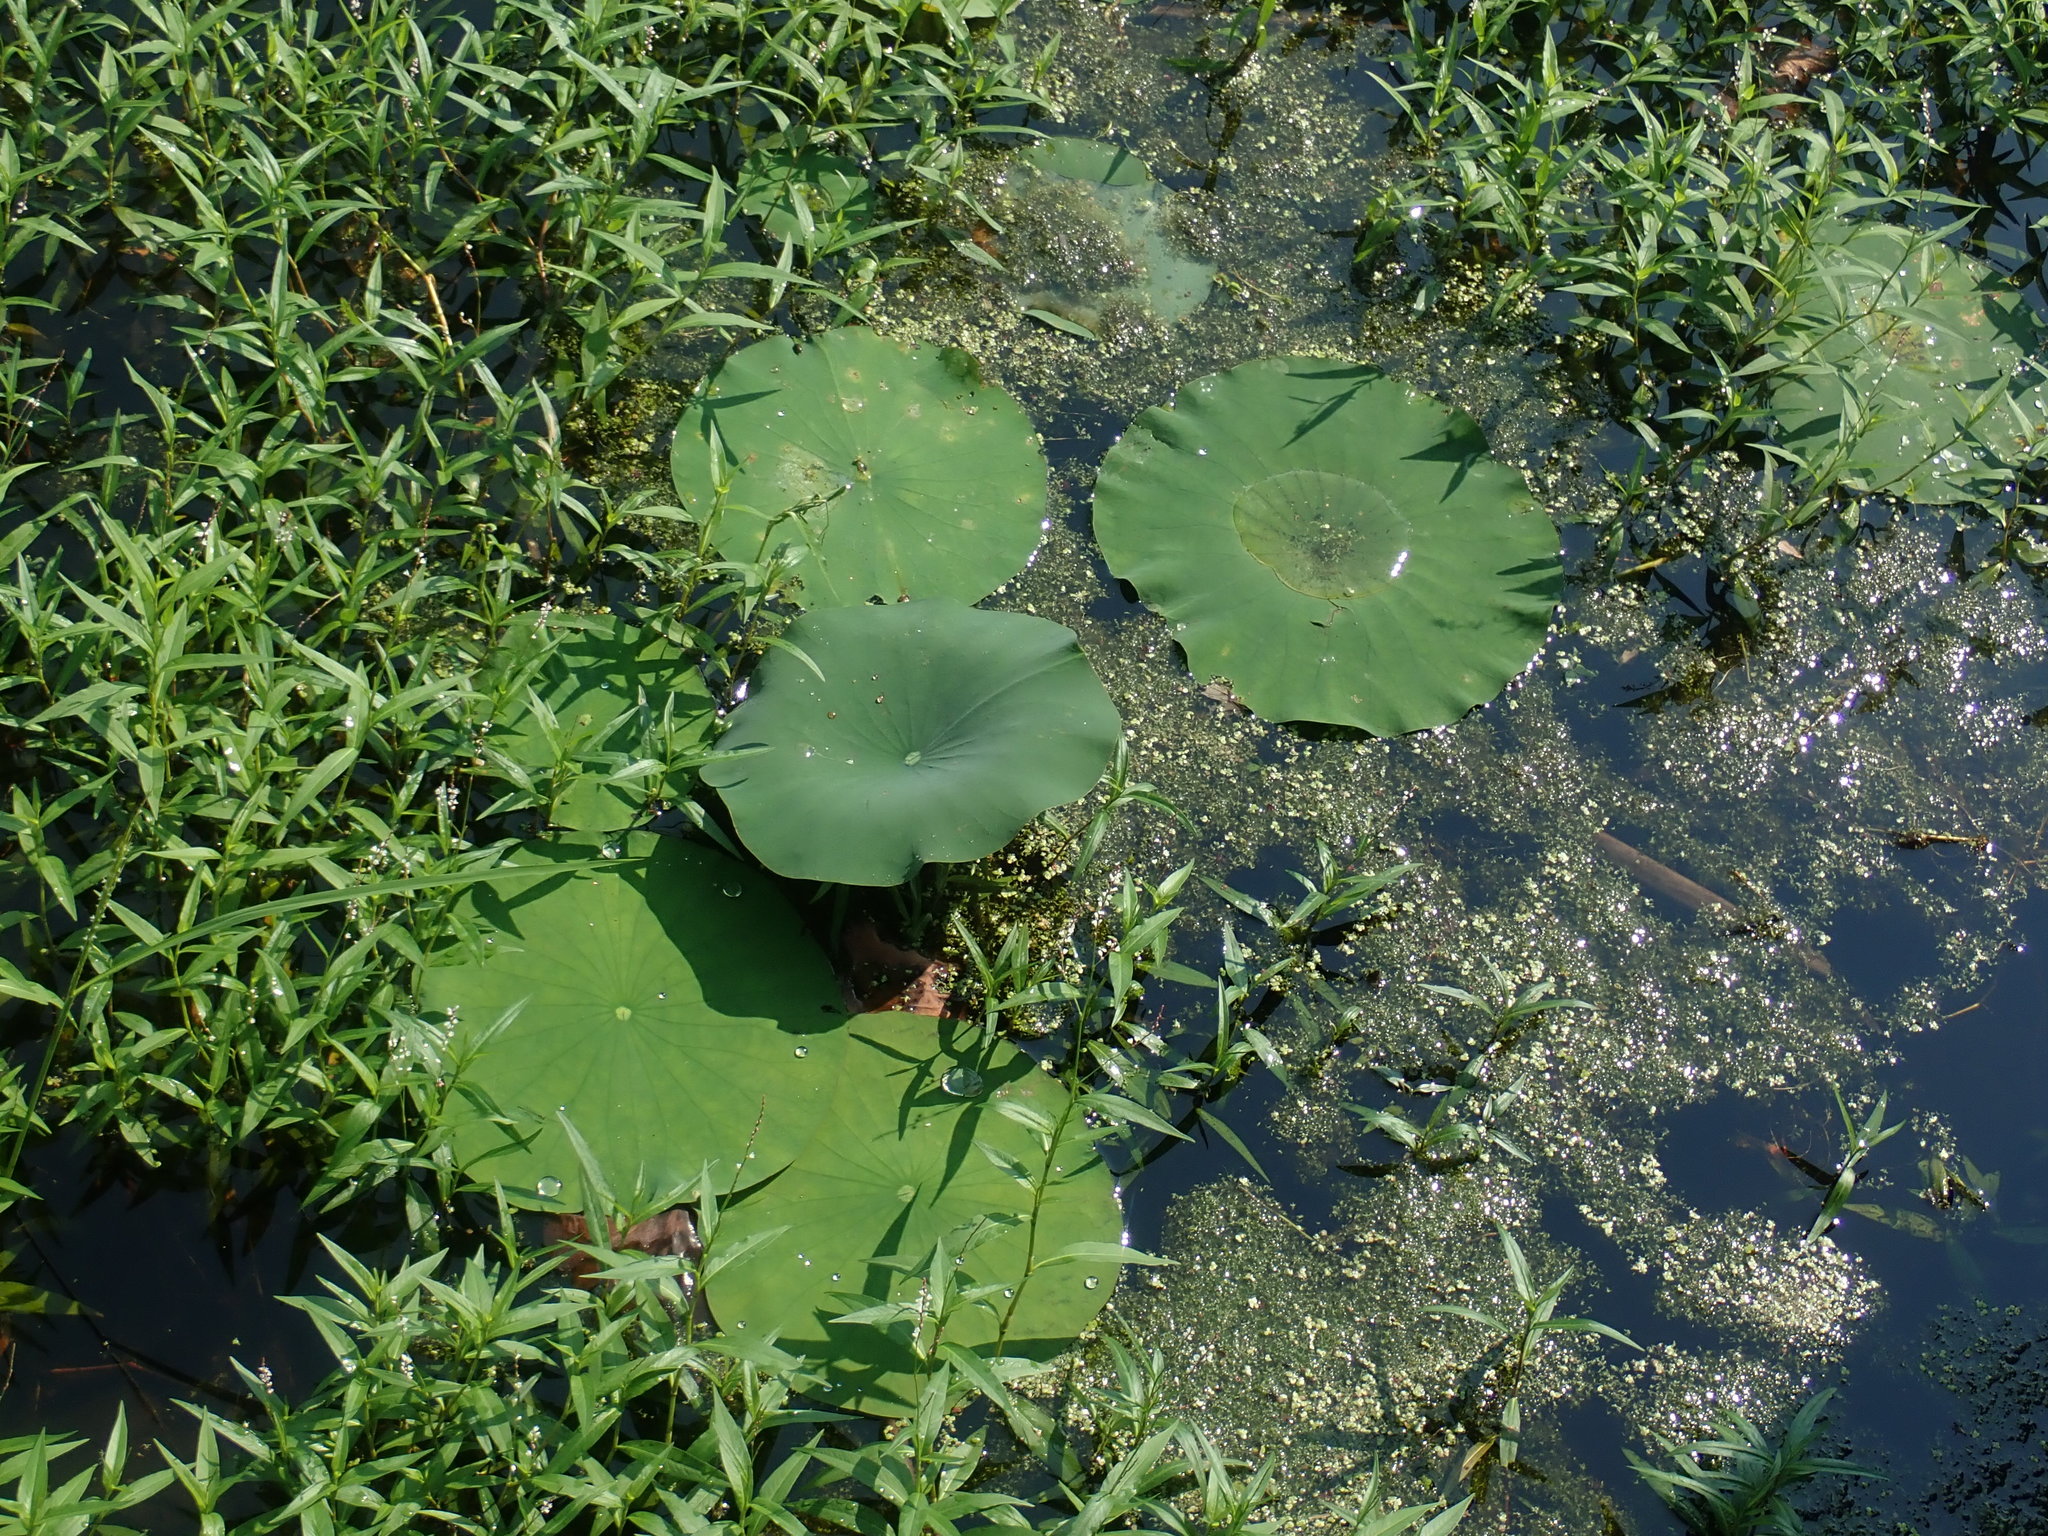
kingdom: Plantae
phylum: Tracheophyta
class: Magnoliopsida
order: Proteales
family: Nelumbonaceae
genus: Nelumbo
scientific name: Nelumbo lutea
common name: American lotus
